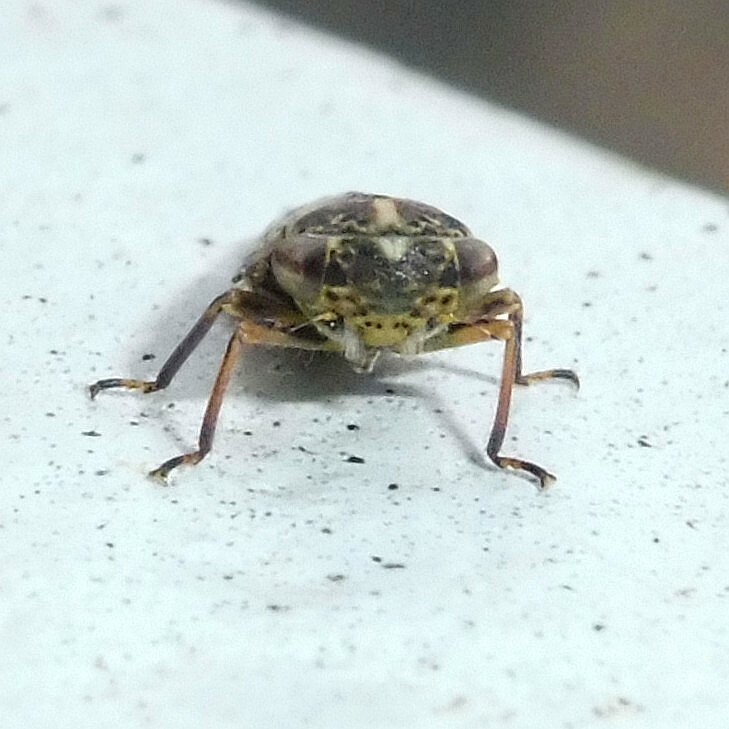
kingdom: Animalia
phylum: Arthropoda
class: Insecta
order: Hemiptera
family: Cicadellidae
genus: Idiocerus
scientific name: Idiocerus herrichii
